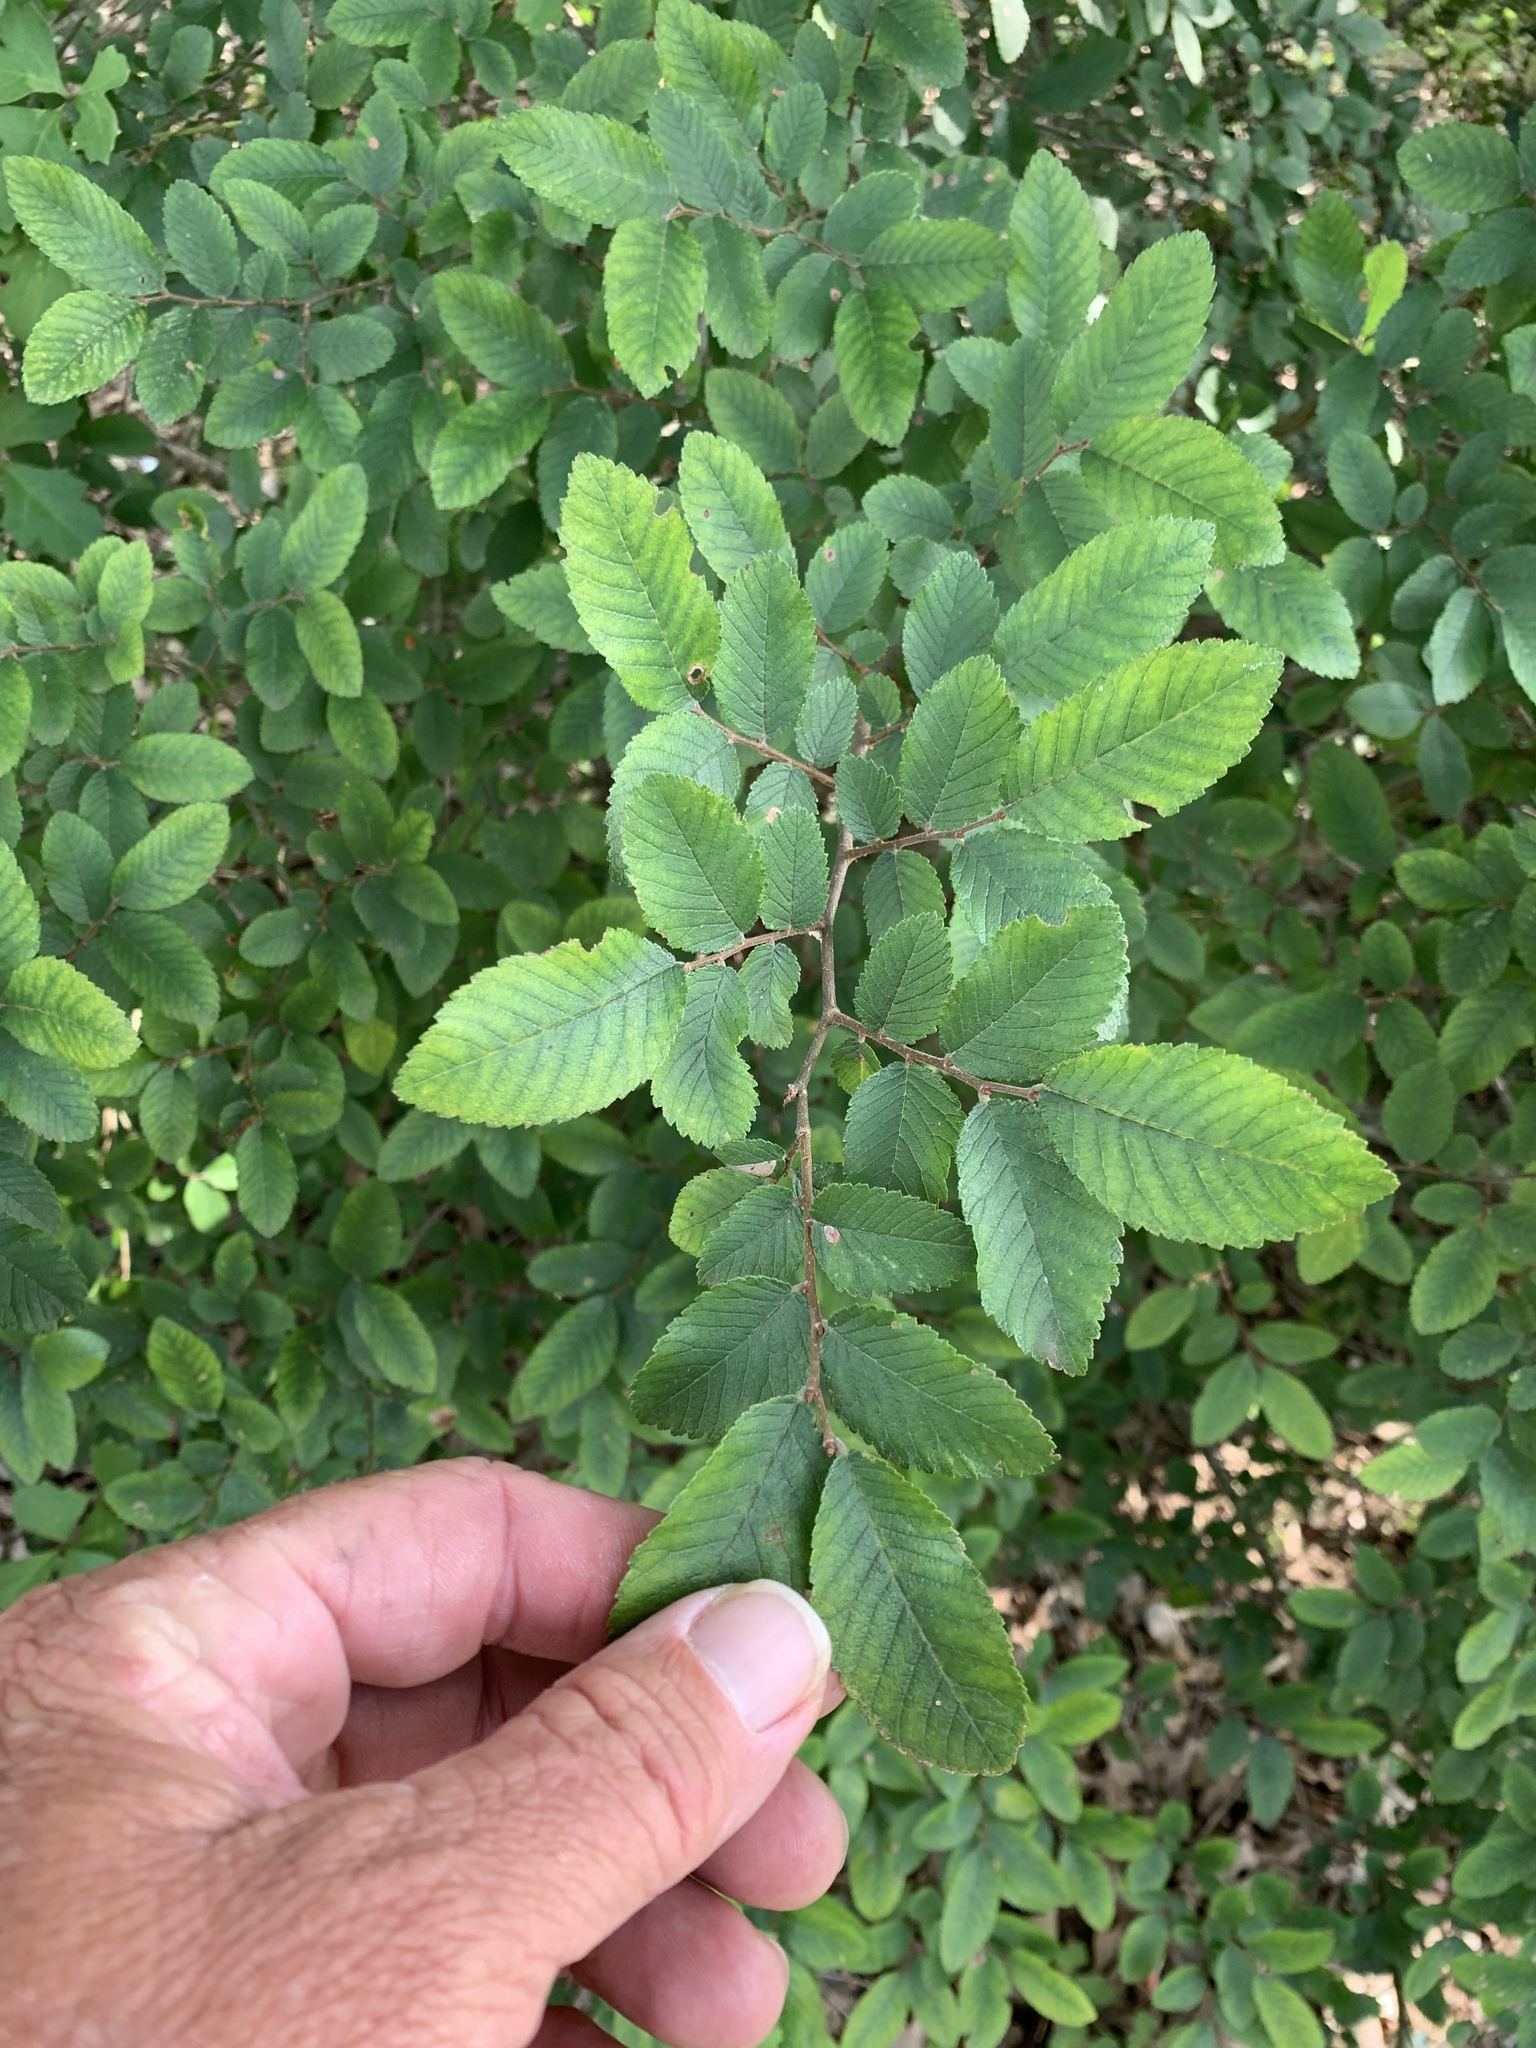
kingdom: Plantae
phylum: Tracheophyta
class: Magnoliopsida
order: Rosales
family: Ulmaceae
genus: Ulmus
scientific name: Ulmus crassifolia
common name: Basket elm
